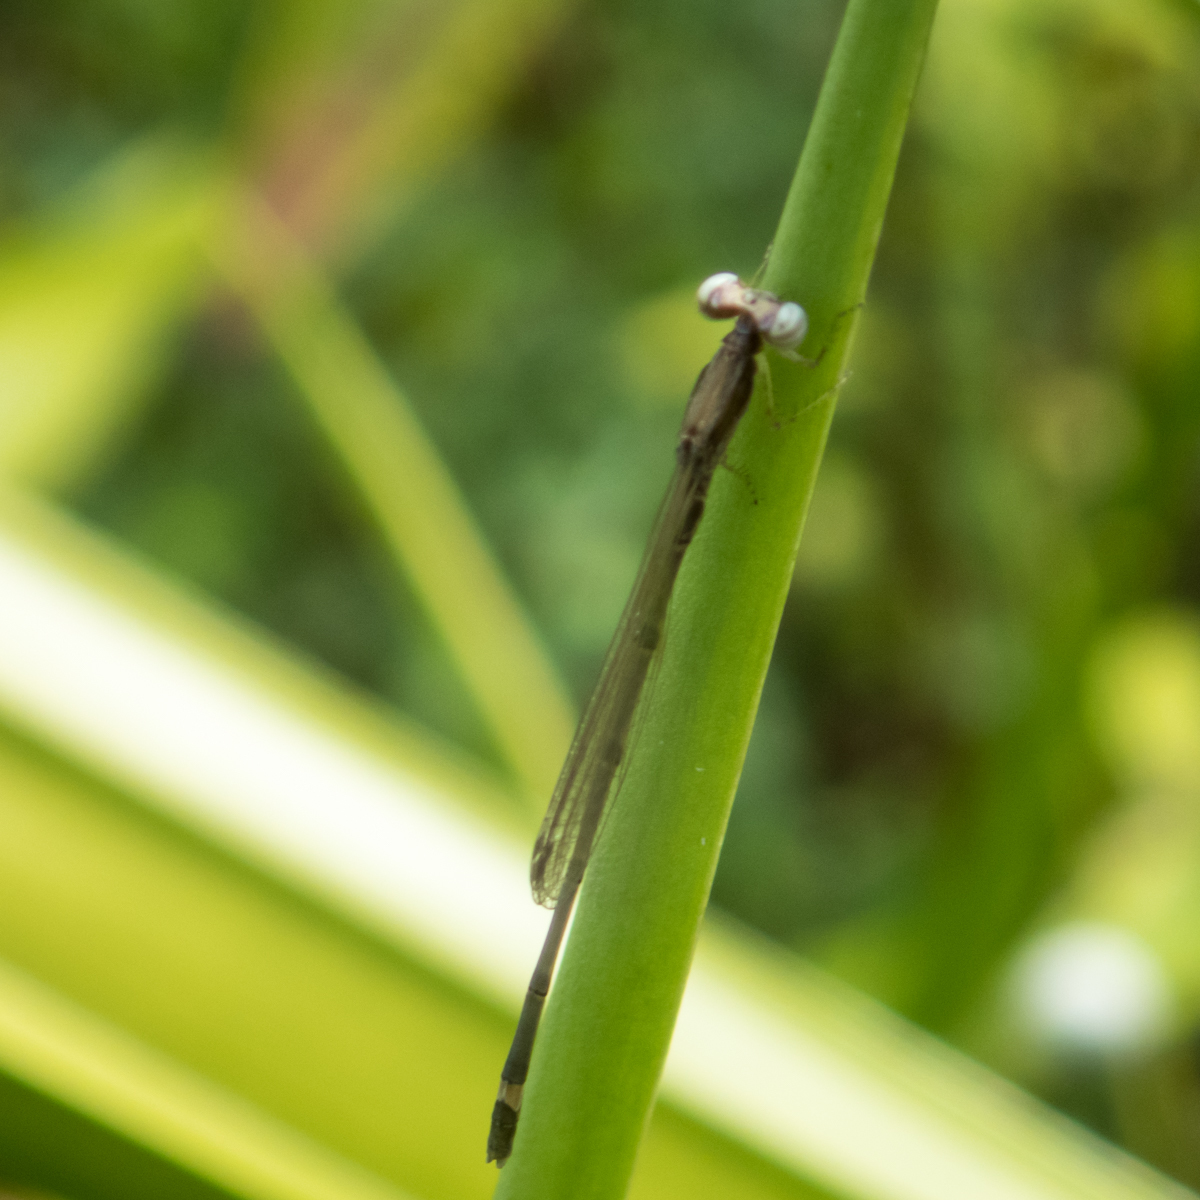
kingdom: Animalia
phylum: Arthropoda
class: Insecta
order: Odonata
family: Coenagrionidae
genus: Mortonagrion
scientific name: Mortonagrion falcatum
